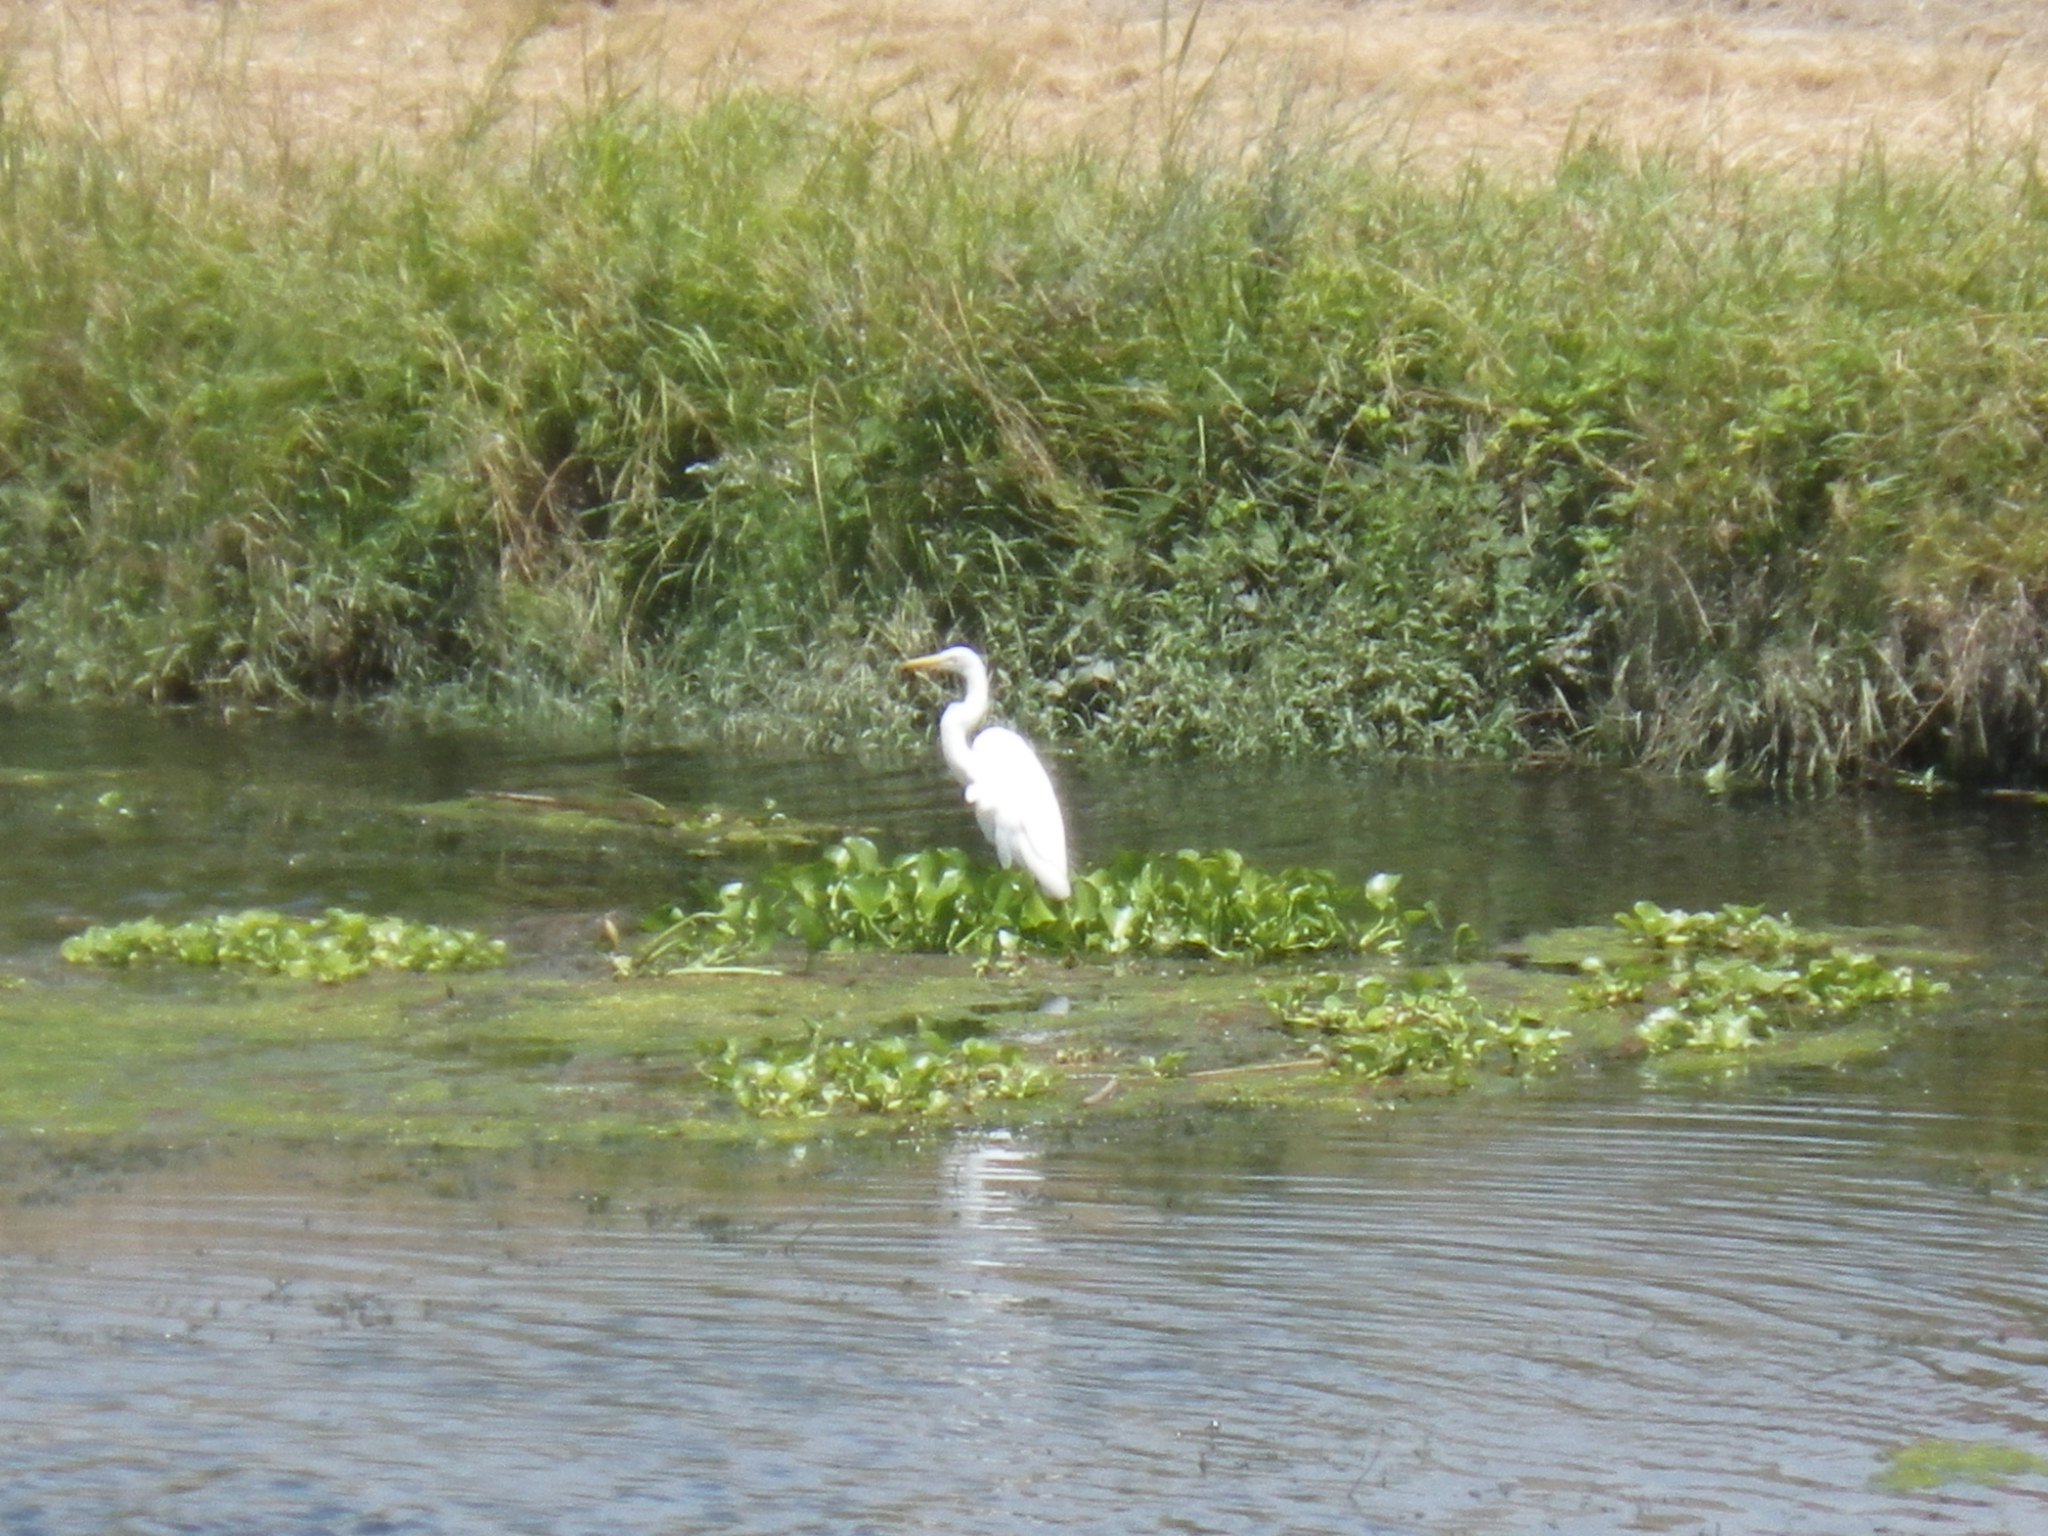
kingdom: Animalia
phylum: Chordata
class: Aves
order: Pelecaniformes
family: Ardeidae
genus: Ardea
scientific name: Ardea alba
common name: Great egret
